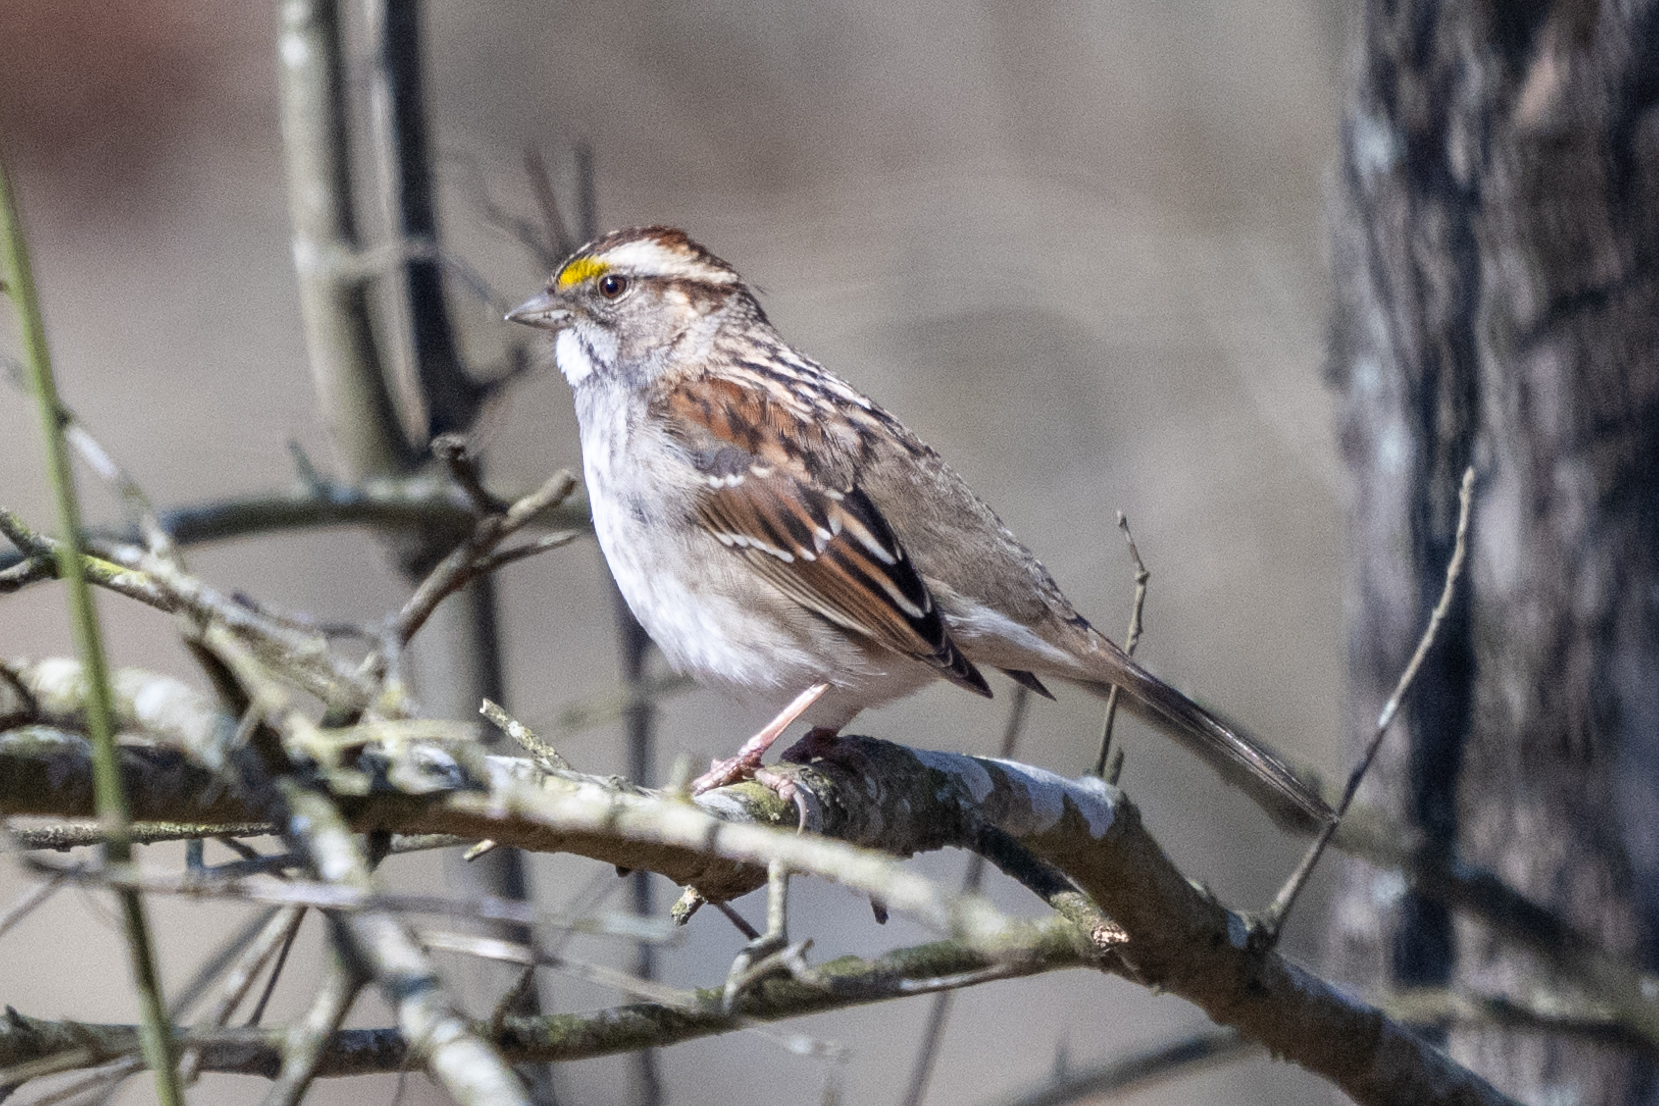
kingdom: Animalia
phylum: Chordata
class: Aves
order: Passeriformes
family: Passerellidae
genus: Zonotrichia
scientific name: Zonotrichia albicollis
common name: White-throated sparrow
